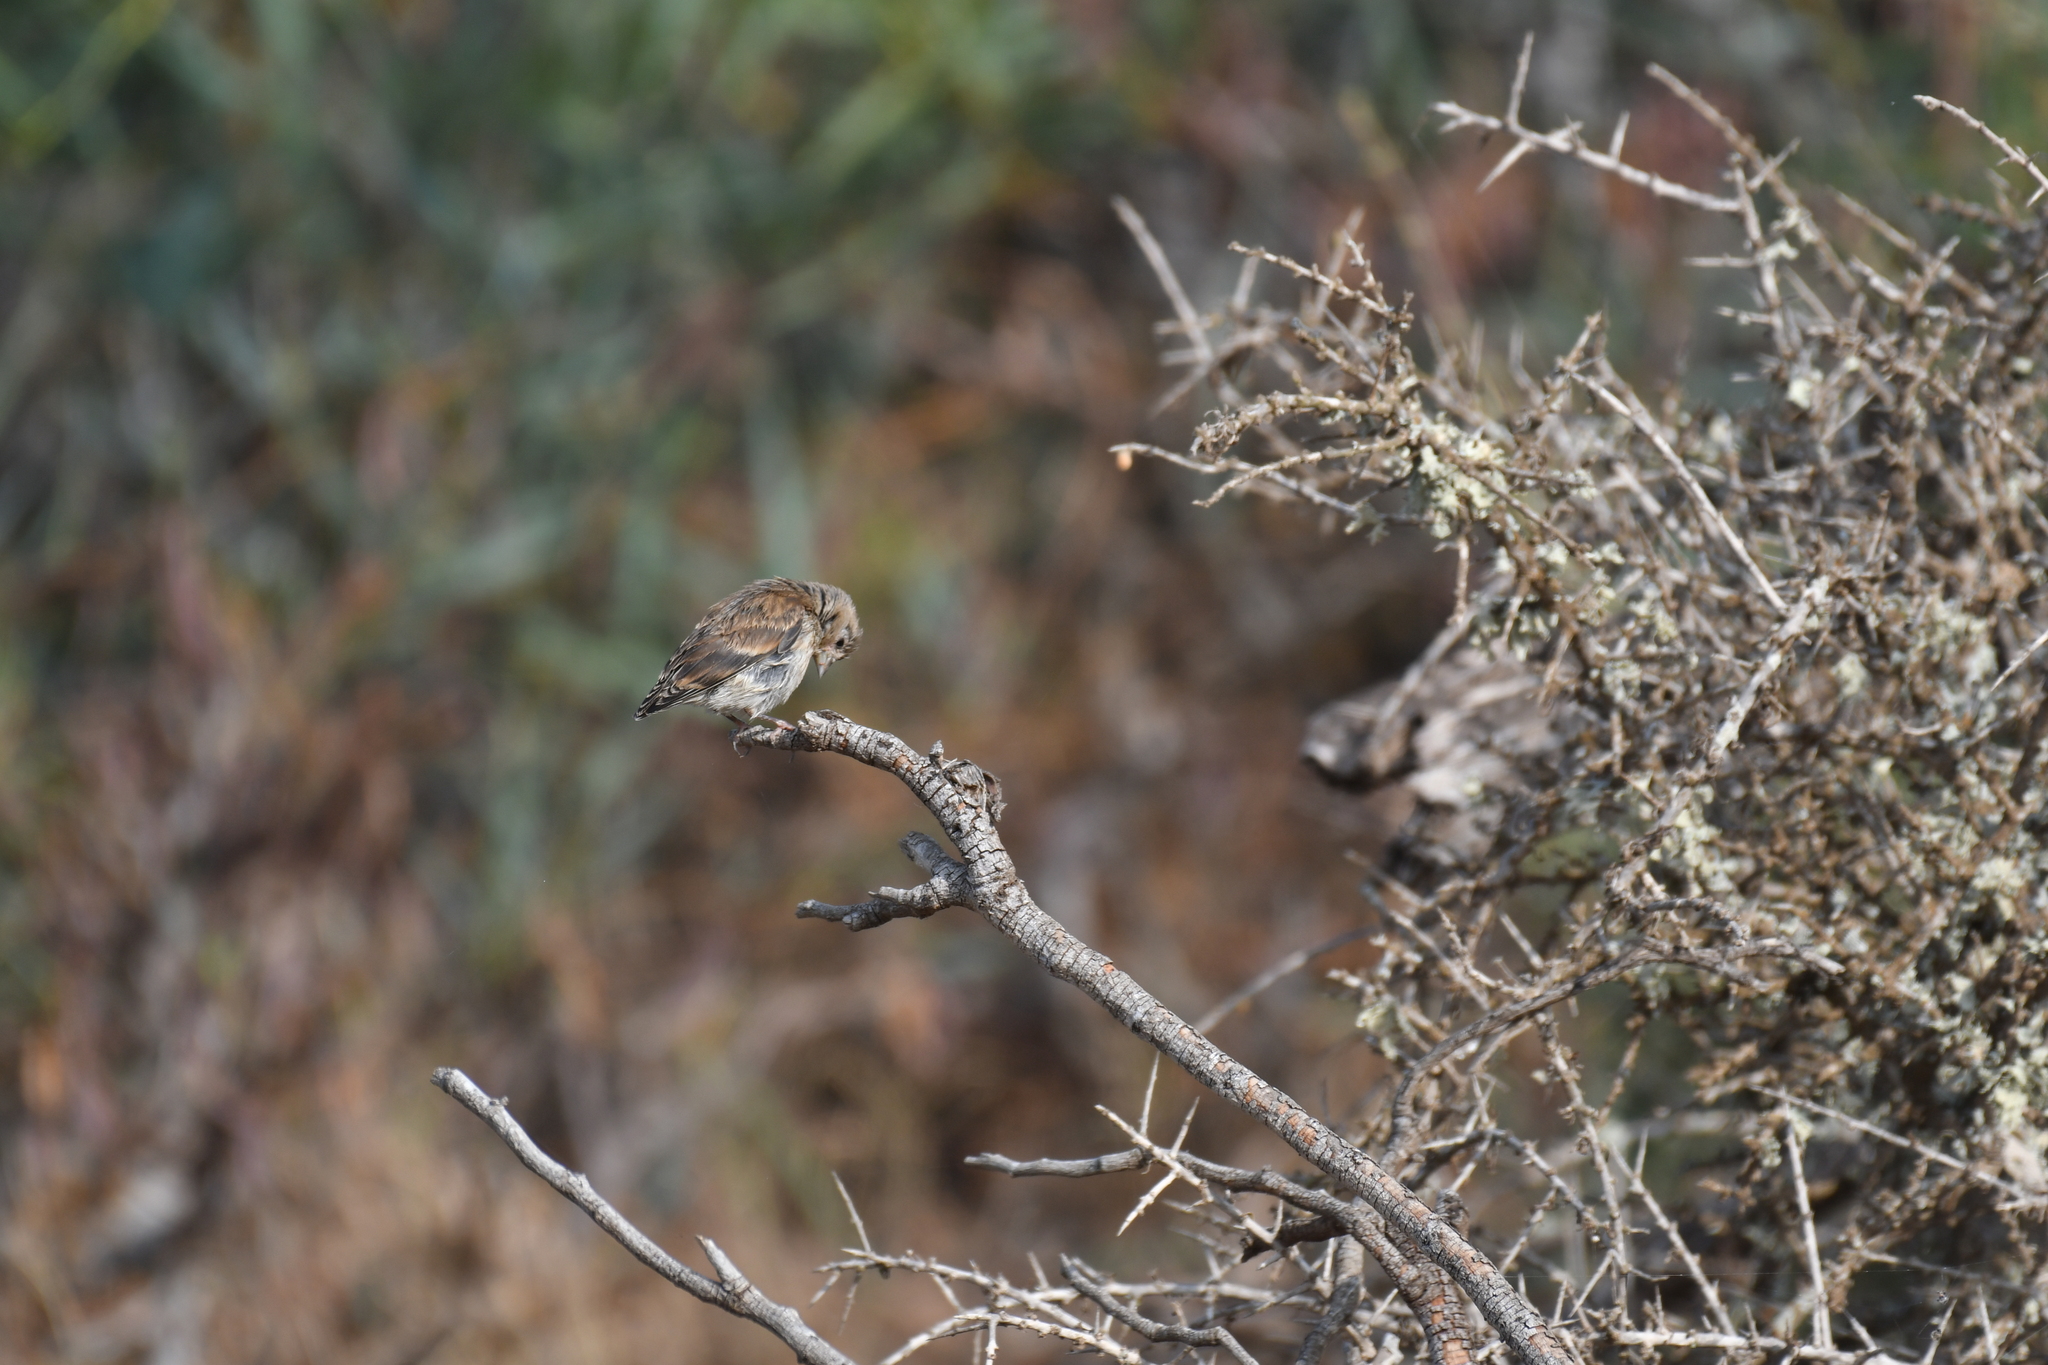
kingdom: Animalia
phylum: Chordata
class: Aves
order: Passeriformes
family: Fringillidae
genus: Linaria
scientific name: Linaria cannabina
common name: Common linnet
